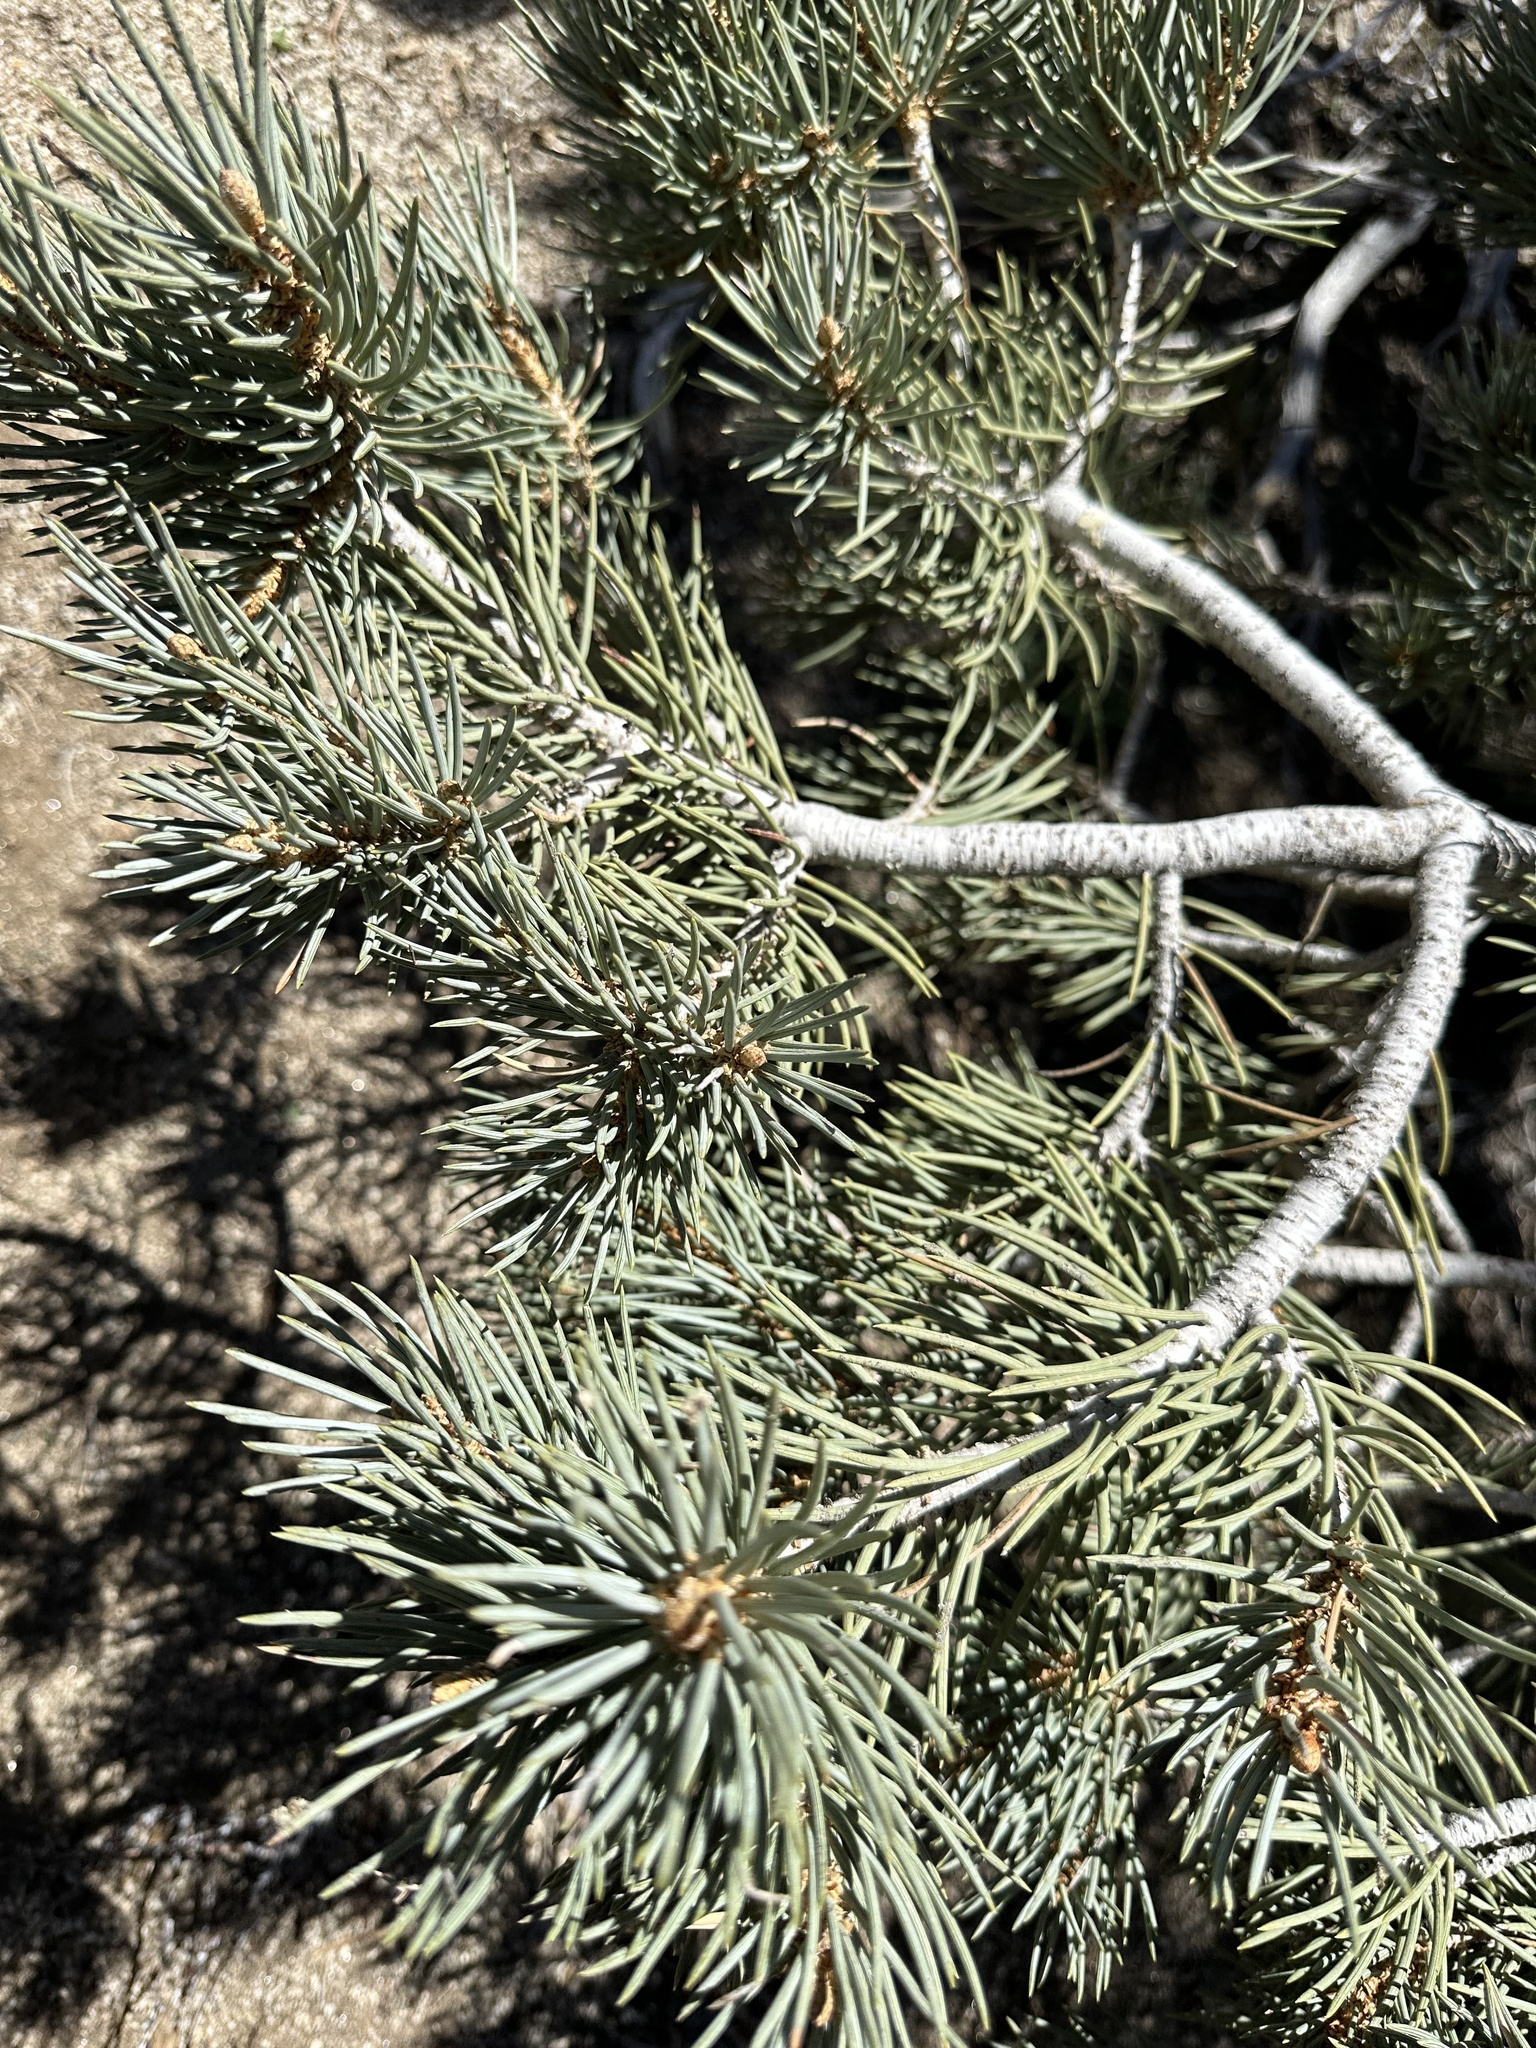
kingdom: Plantae
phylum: Tracheophyta
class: Pinopsida
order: Pinales
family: Pinaceae
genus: Pinus
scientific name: Pinus monophylla
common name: One-leaved nut pine
